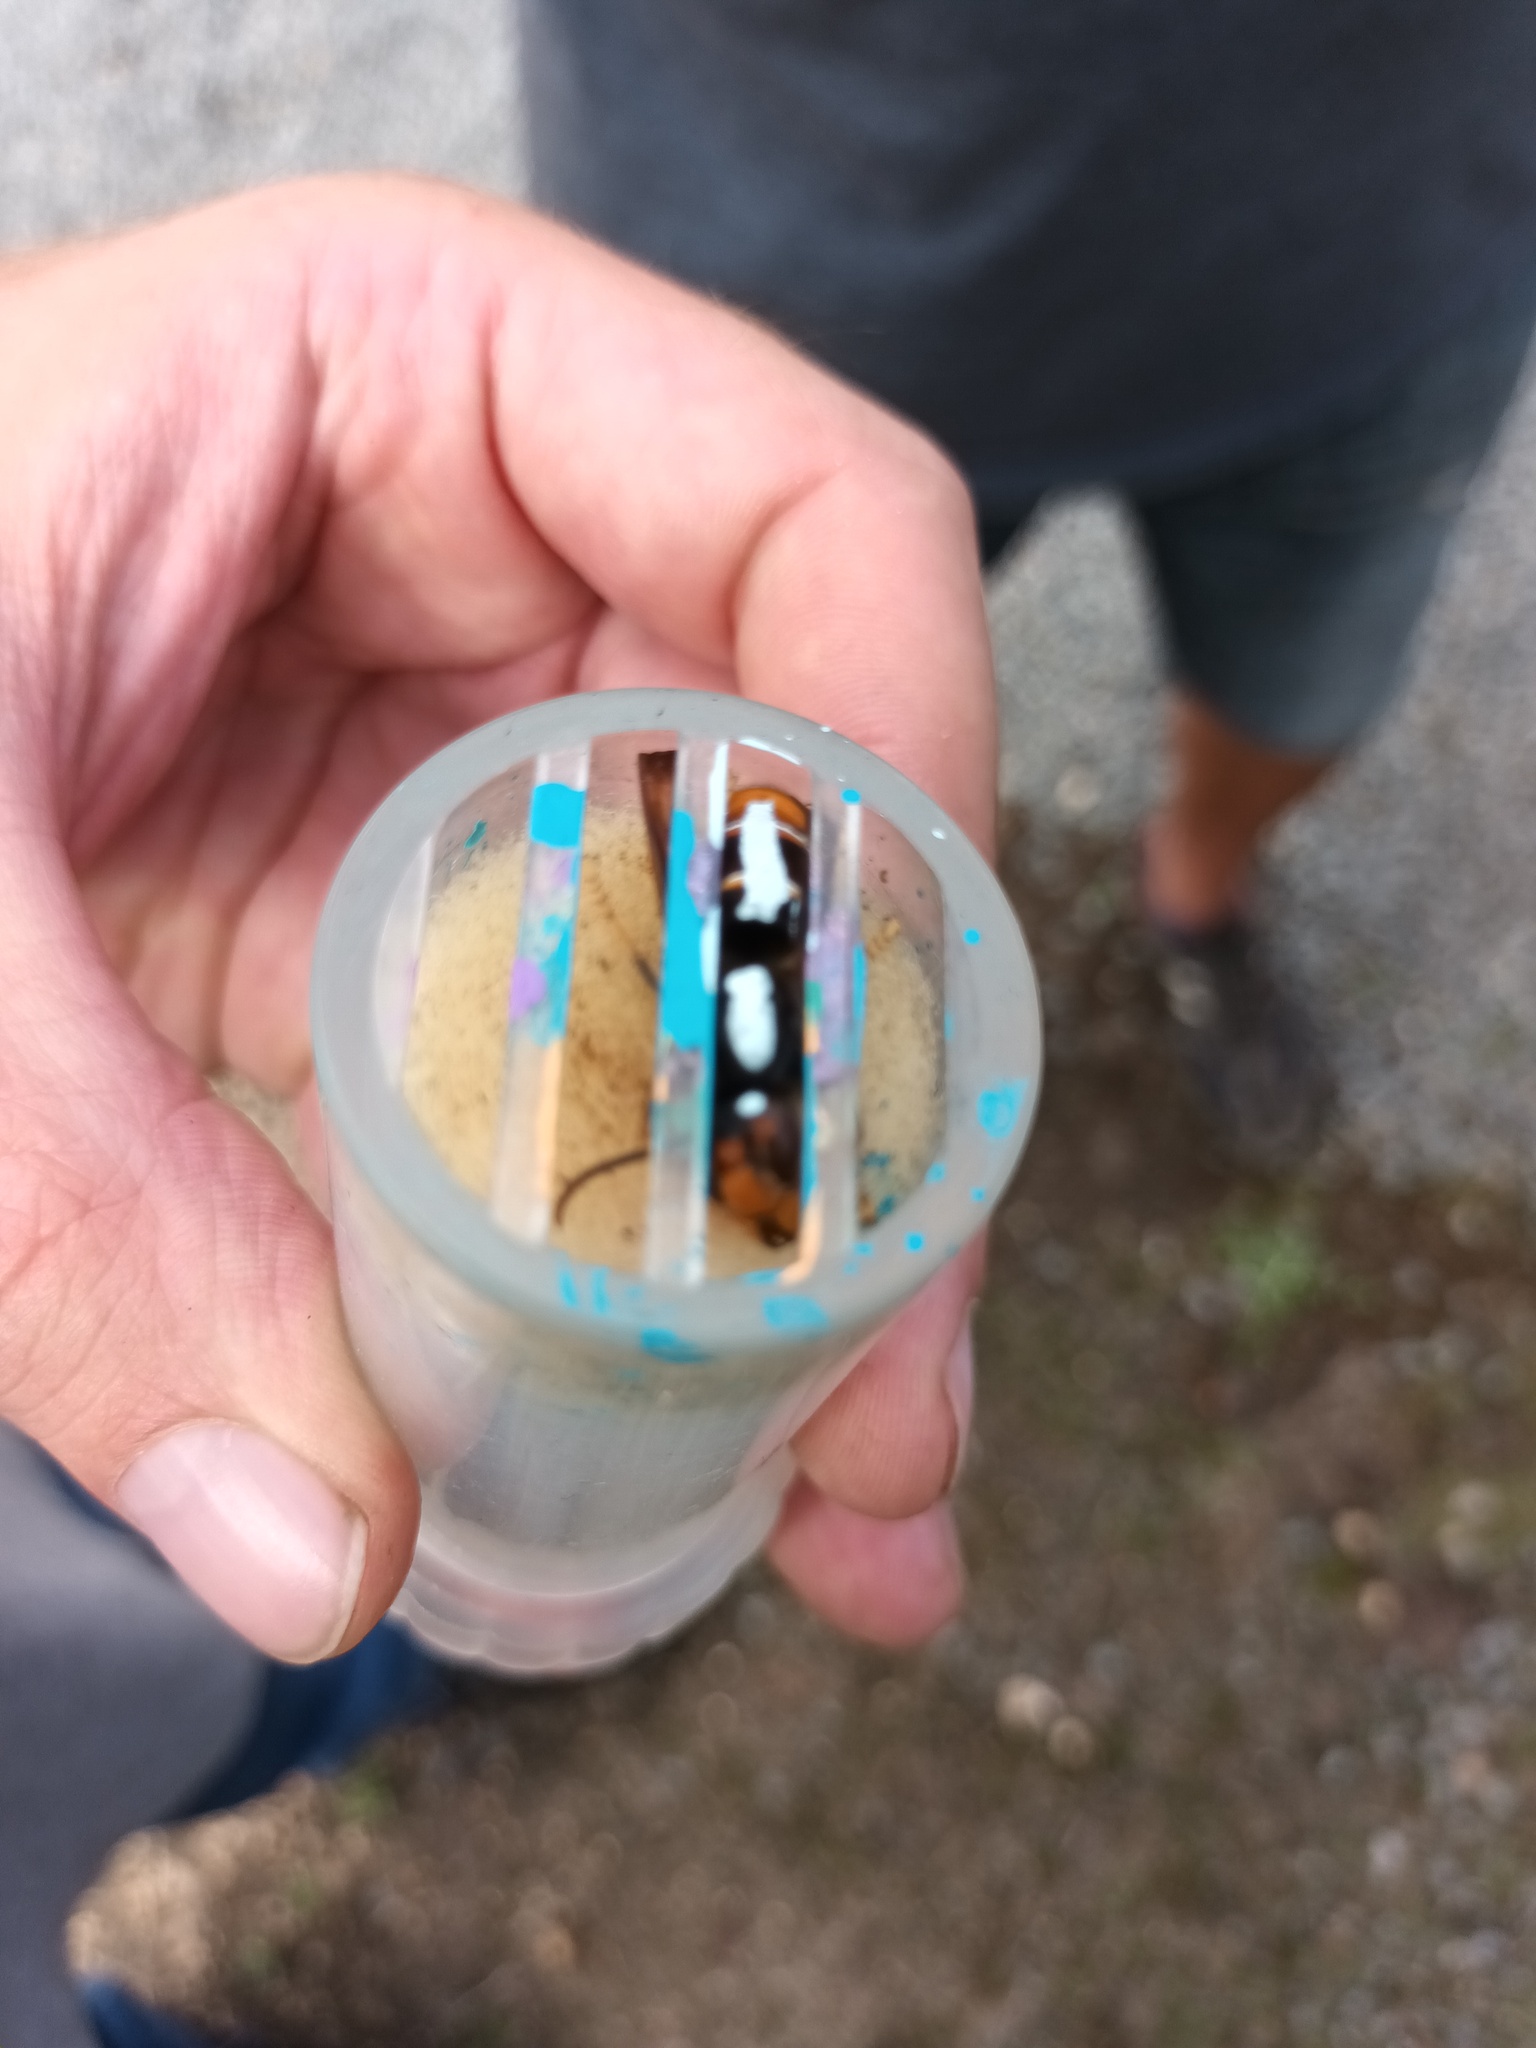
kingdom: Animalia
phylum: Arthropoda
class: Insecta
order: Hymenoptera
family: Vespidae
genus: Vespa
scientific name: Vespa velutina
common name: Asian hornet
